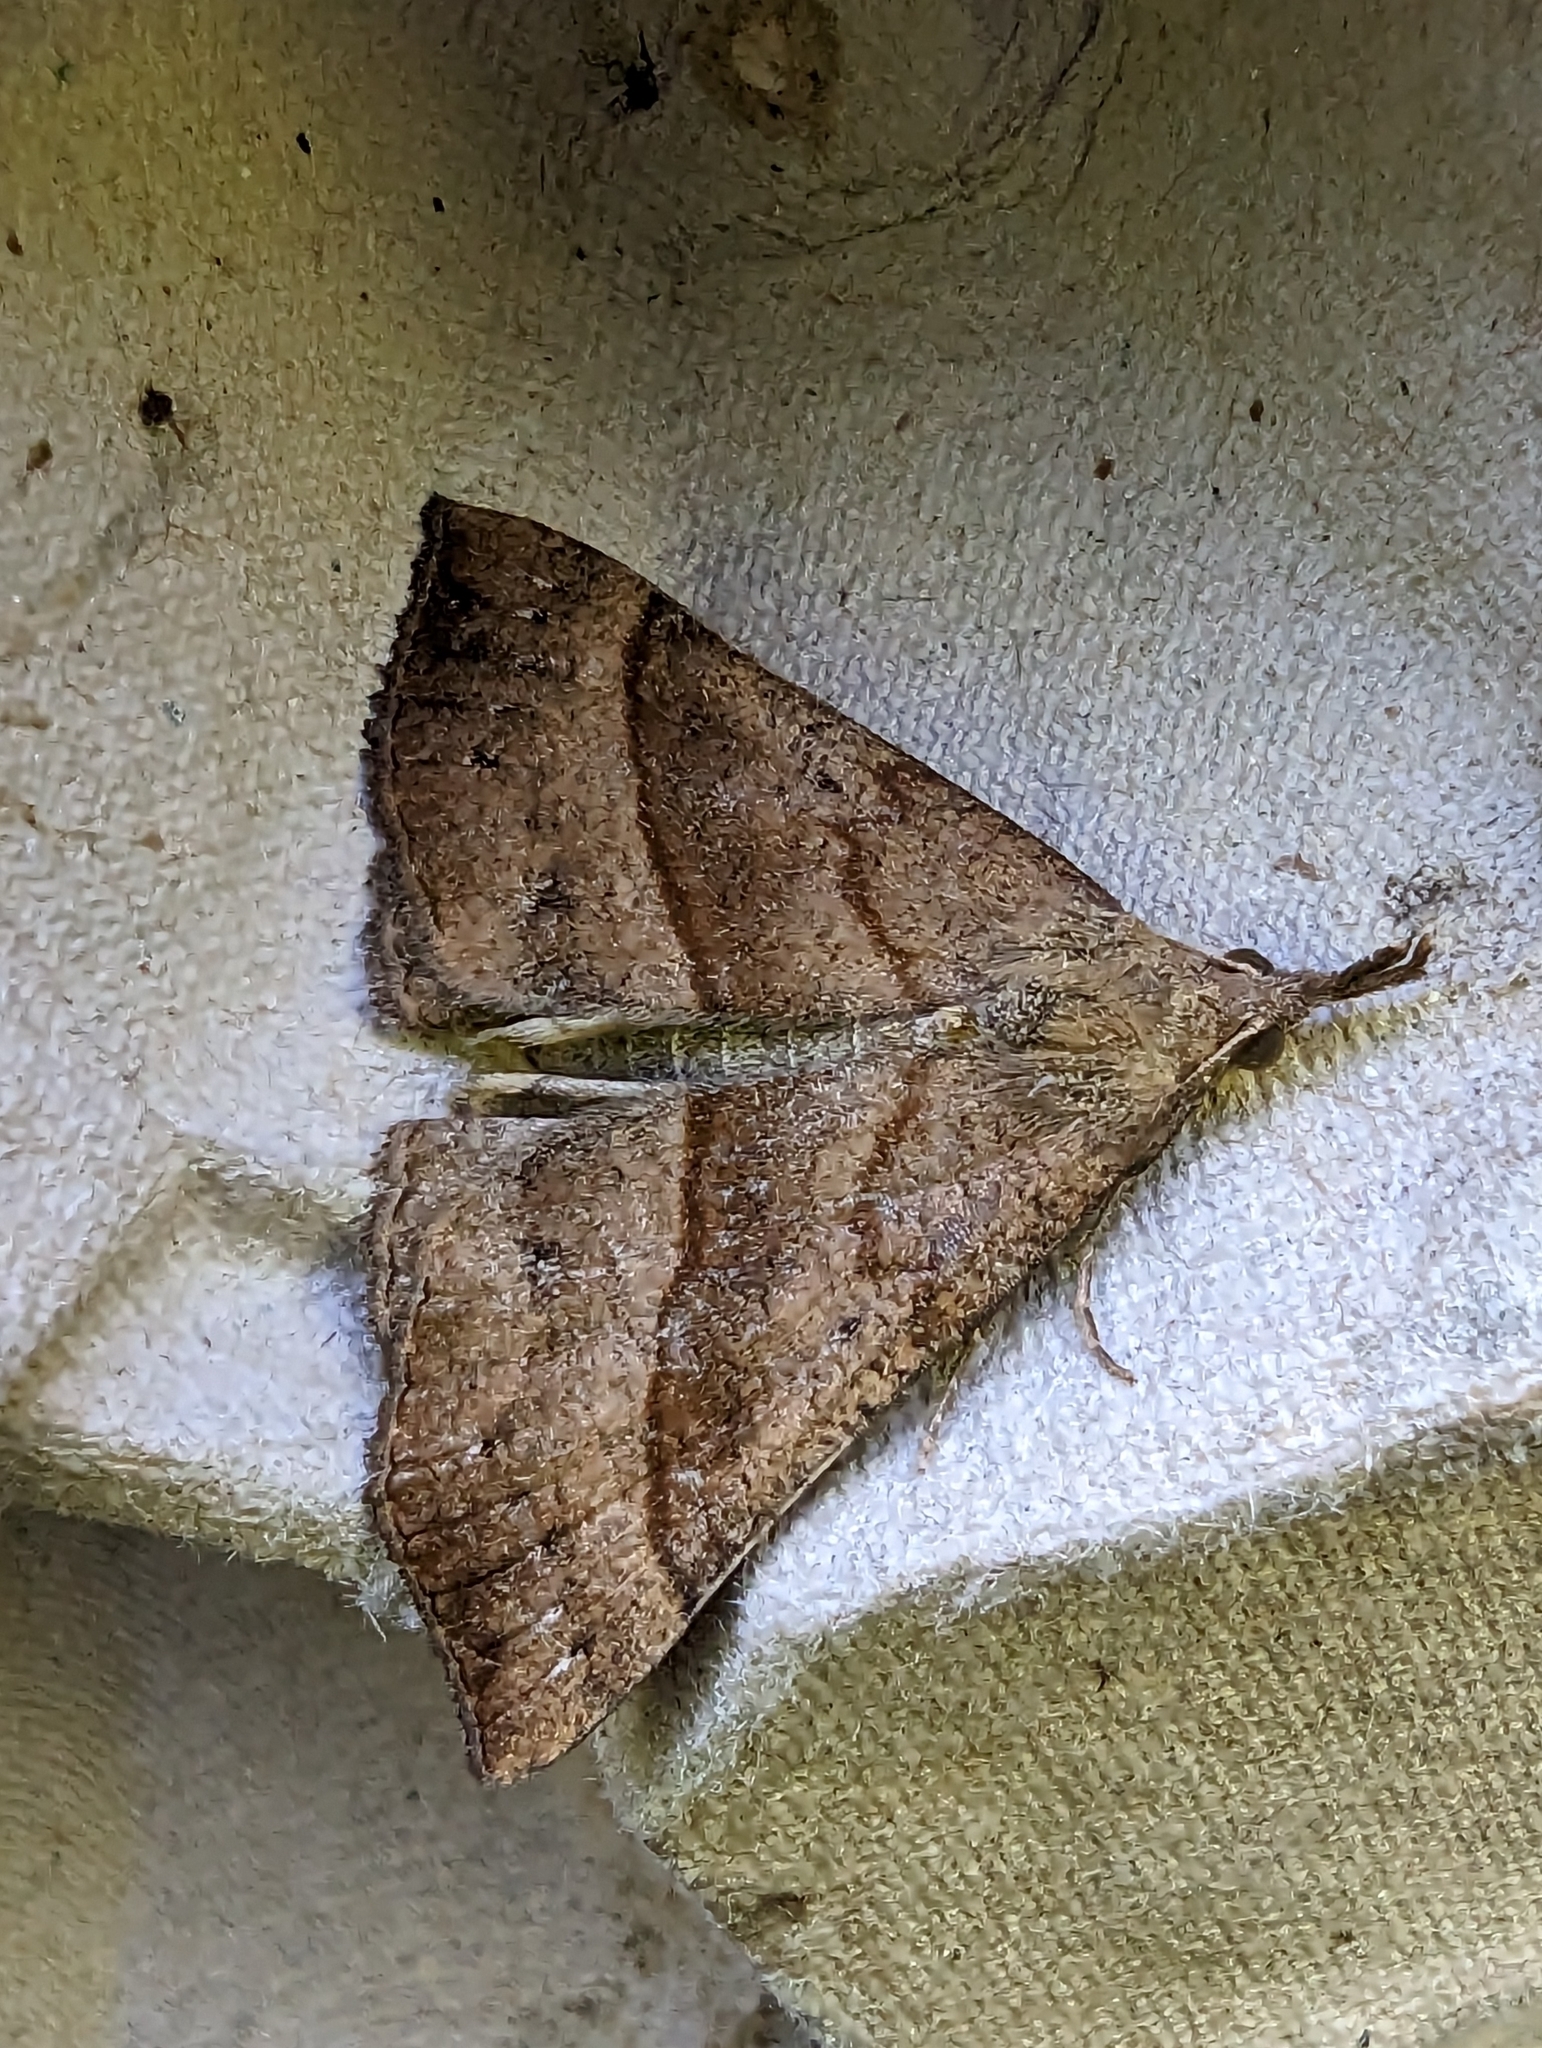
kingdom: Animalia
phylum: Arthropoda
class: Insecta
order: Lepidoptera
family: Erebidae
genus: Hypena
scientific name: Hypena proboscidalis
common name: Snout
